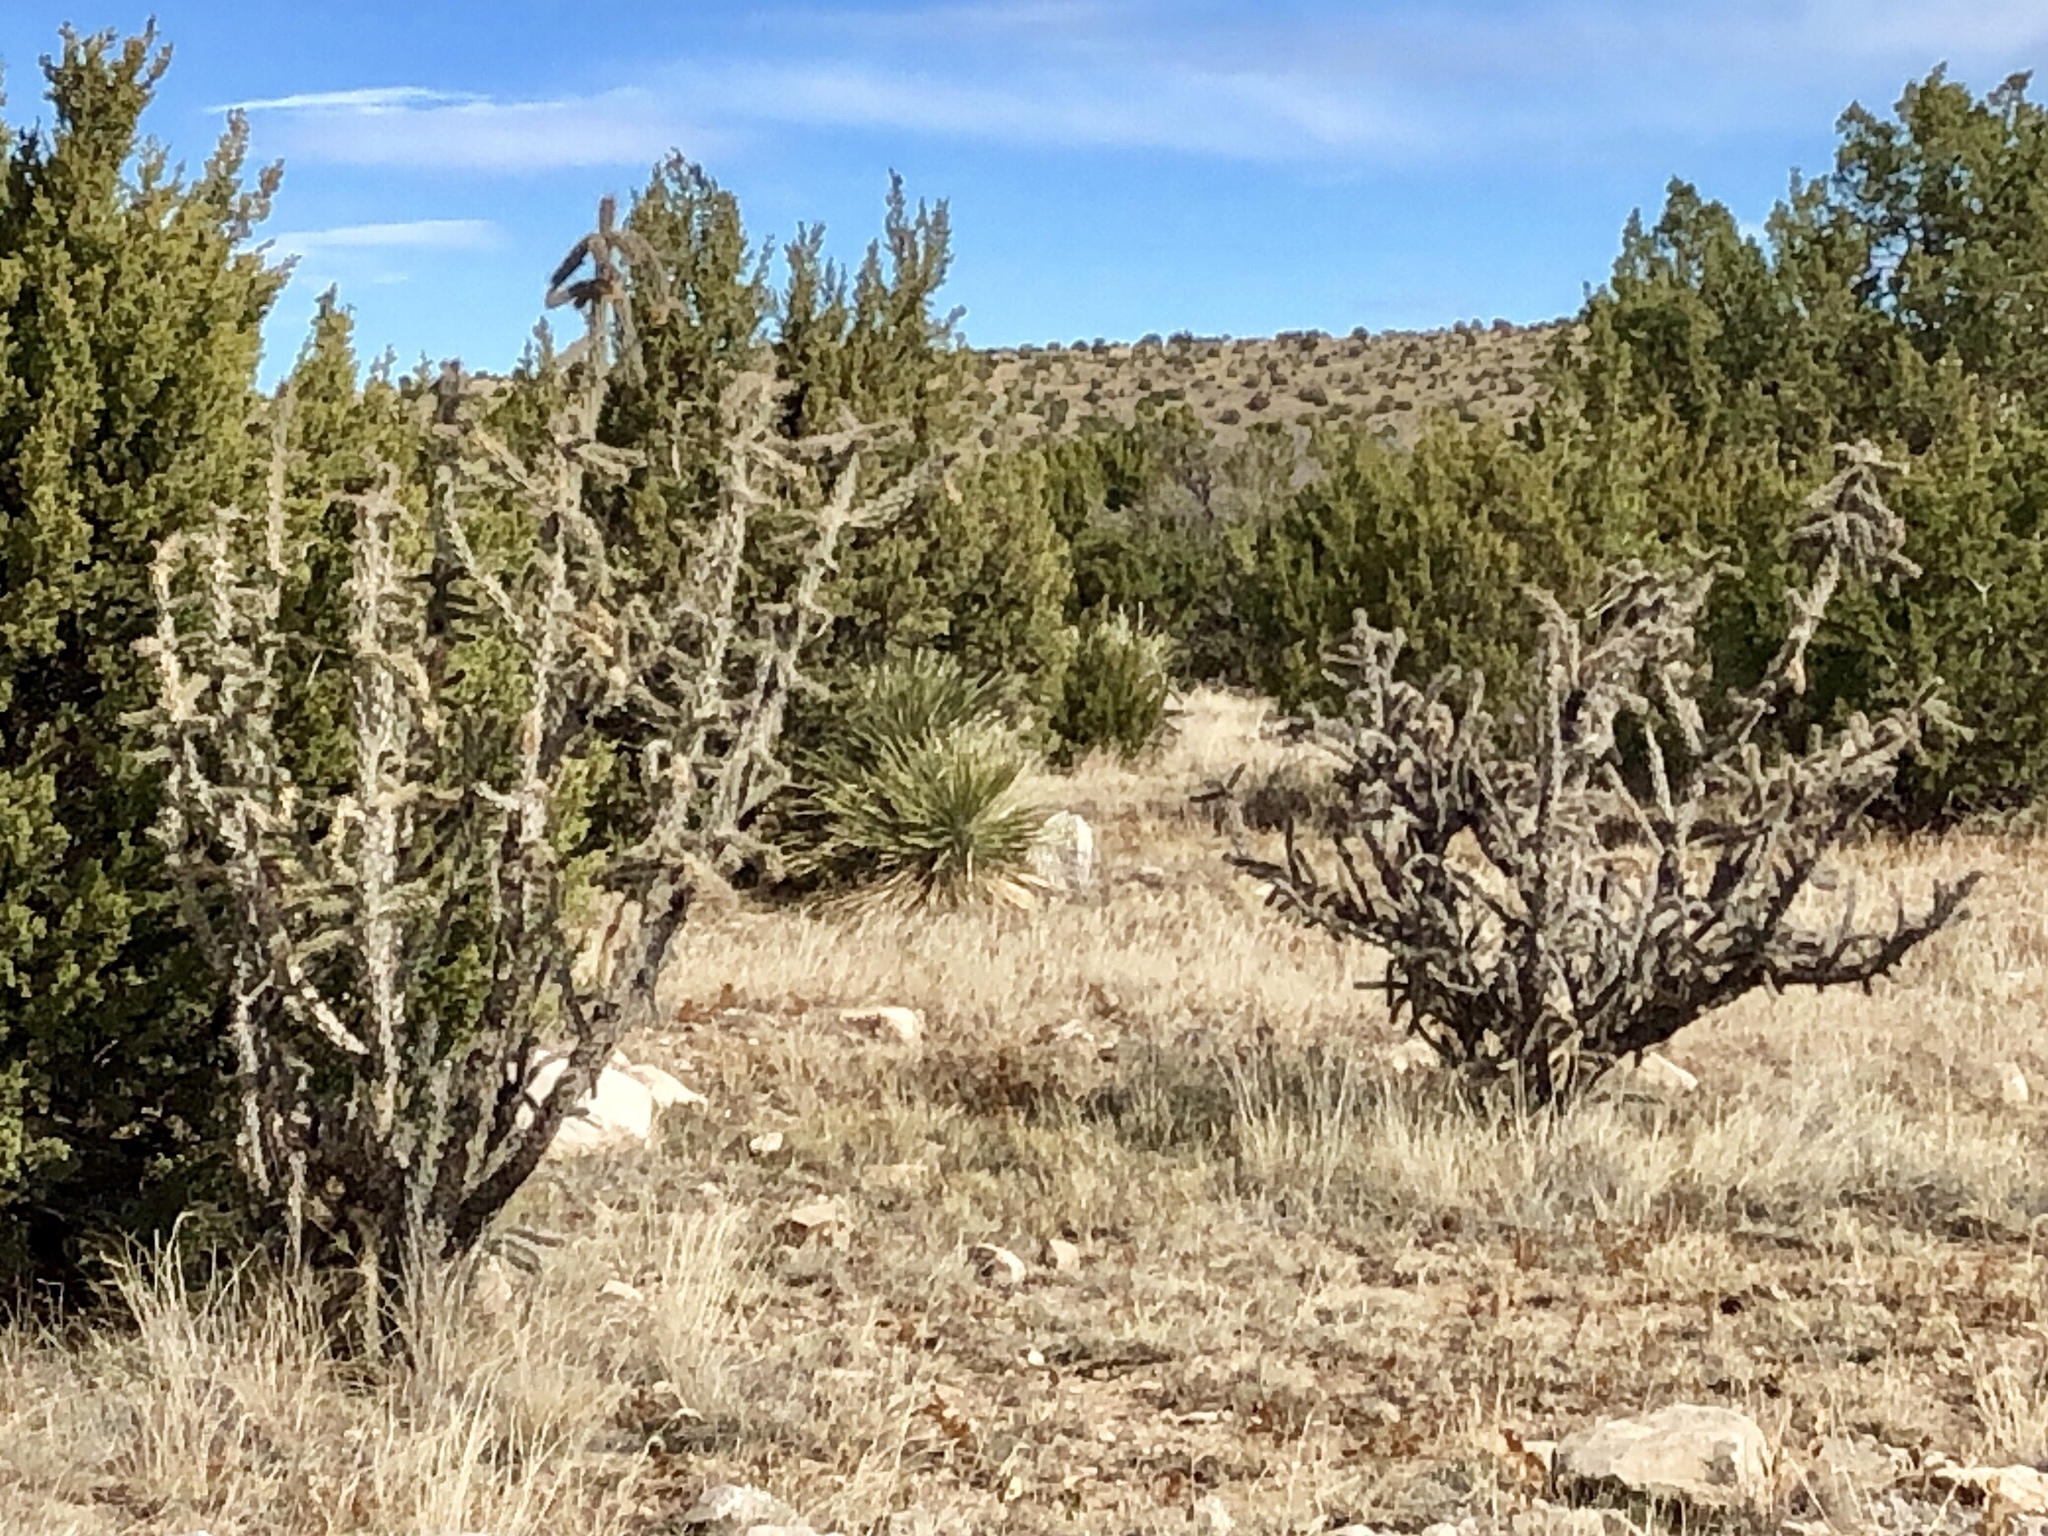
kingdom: Plantae
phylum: Tracheophyta
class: Magnoliopsida
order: Caryophyllales
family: Cactaceae
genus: Cylindropuntia
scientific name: Cylindropuntia imbricata
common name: Candelabrum cactus
